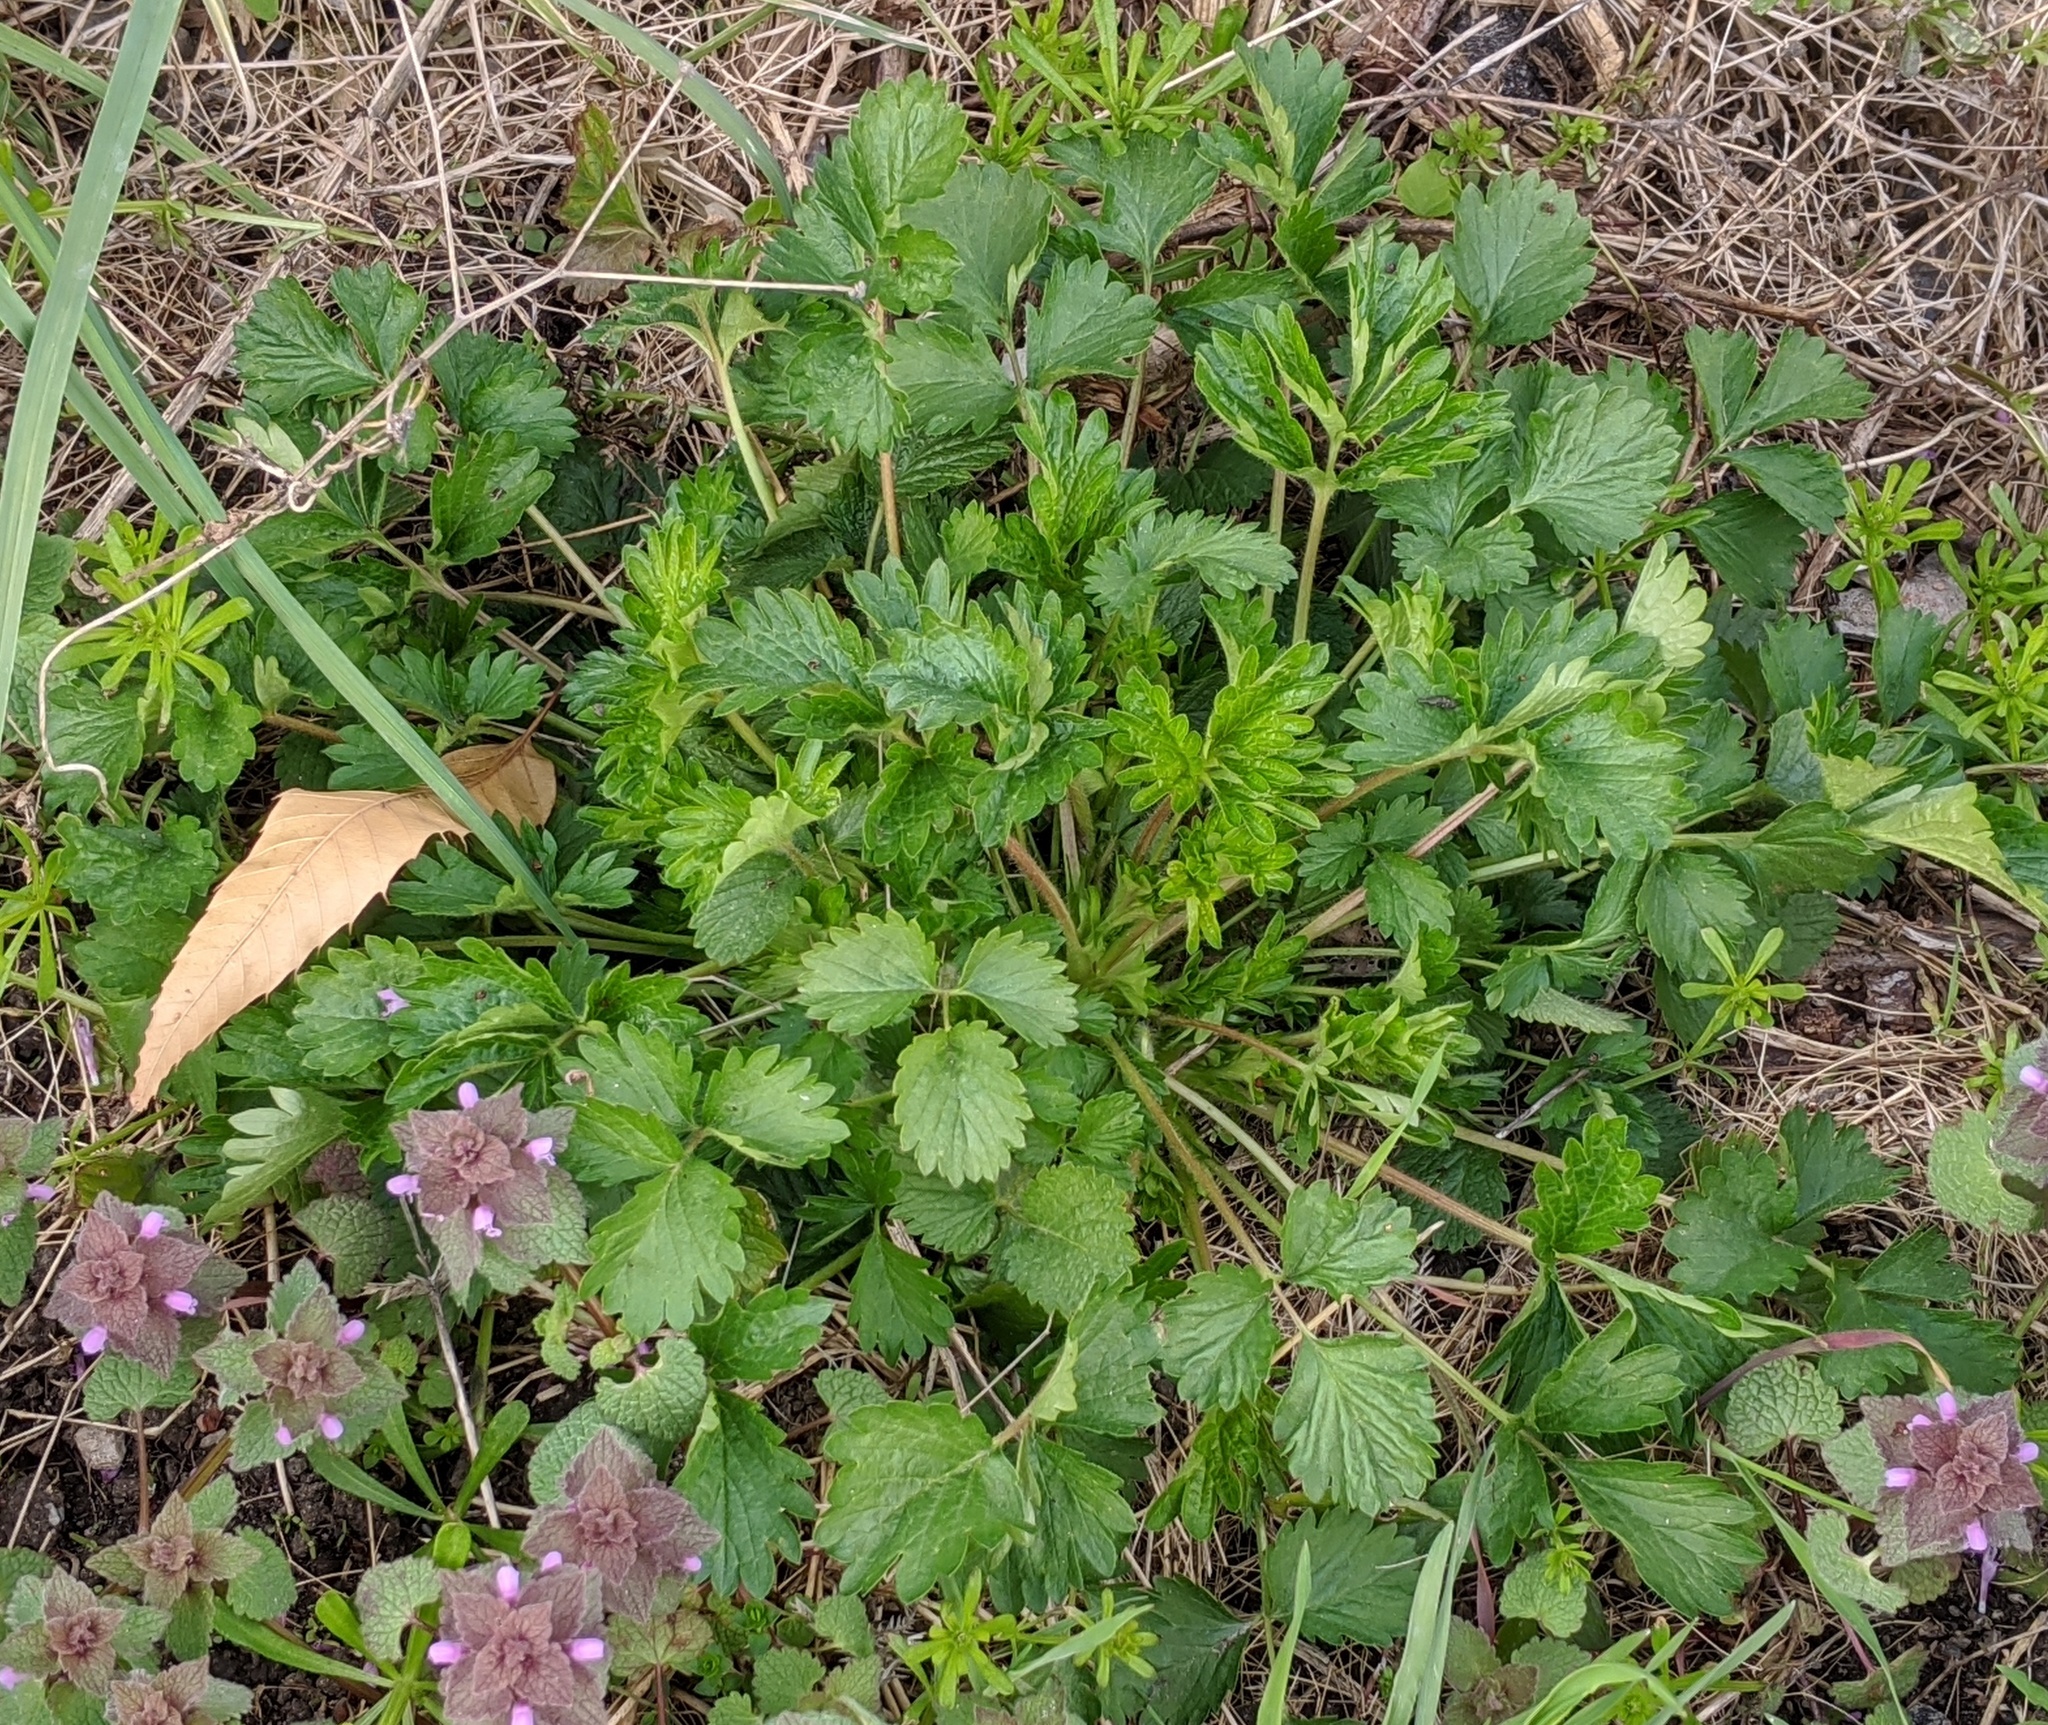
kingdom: Plantae
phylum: Tracheophyta
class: Magnoliopsida
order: Rosales
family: Rosaceae
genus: Potentilla
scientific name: Potentilla norvegica
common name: Ternate-leaved cinquefoil
